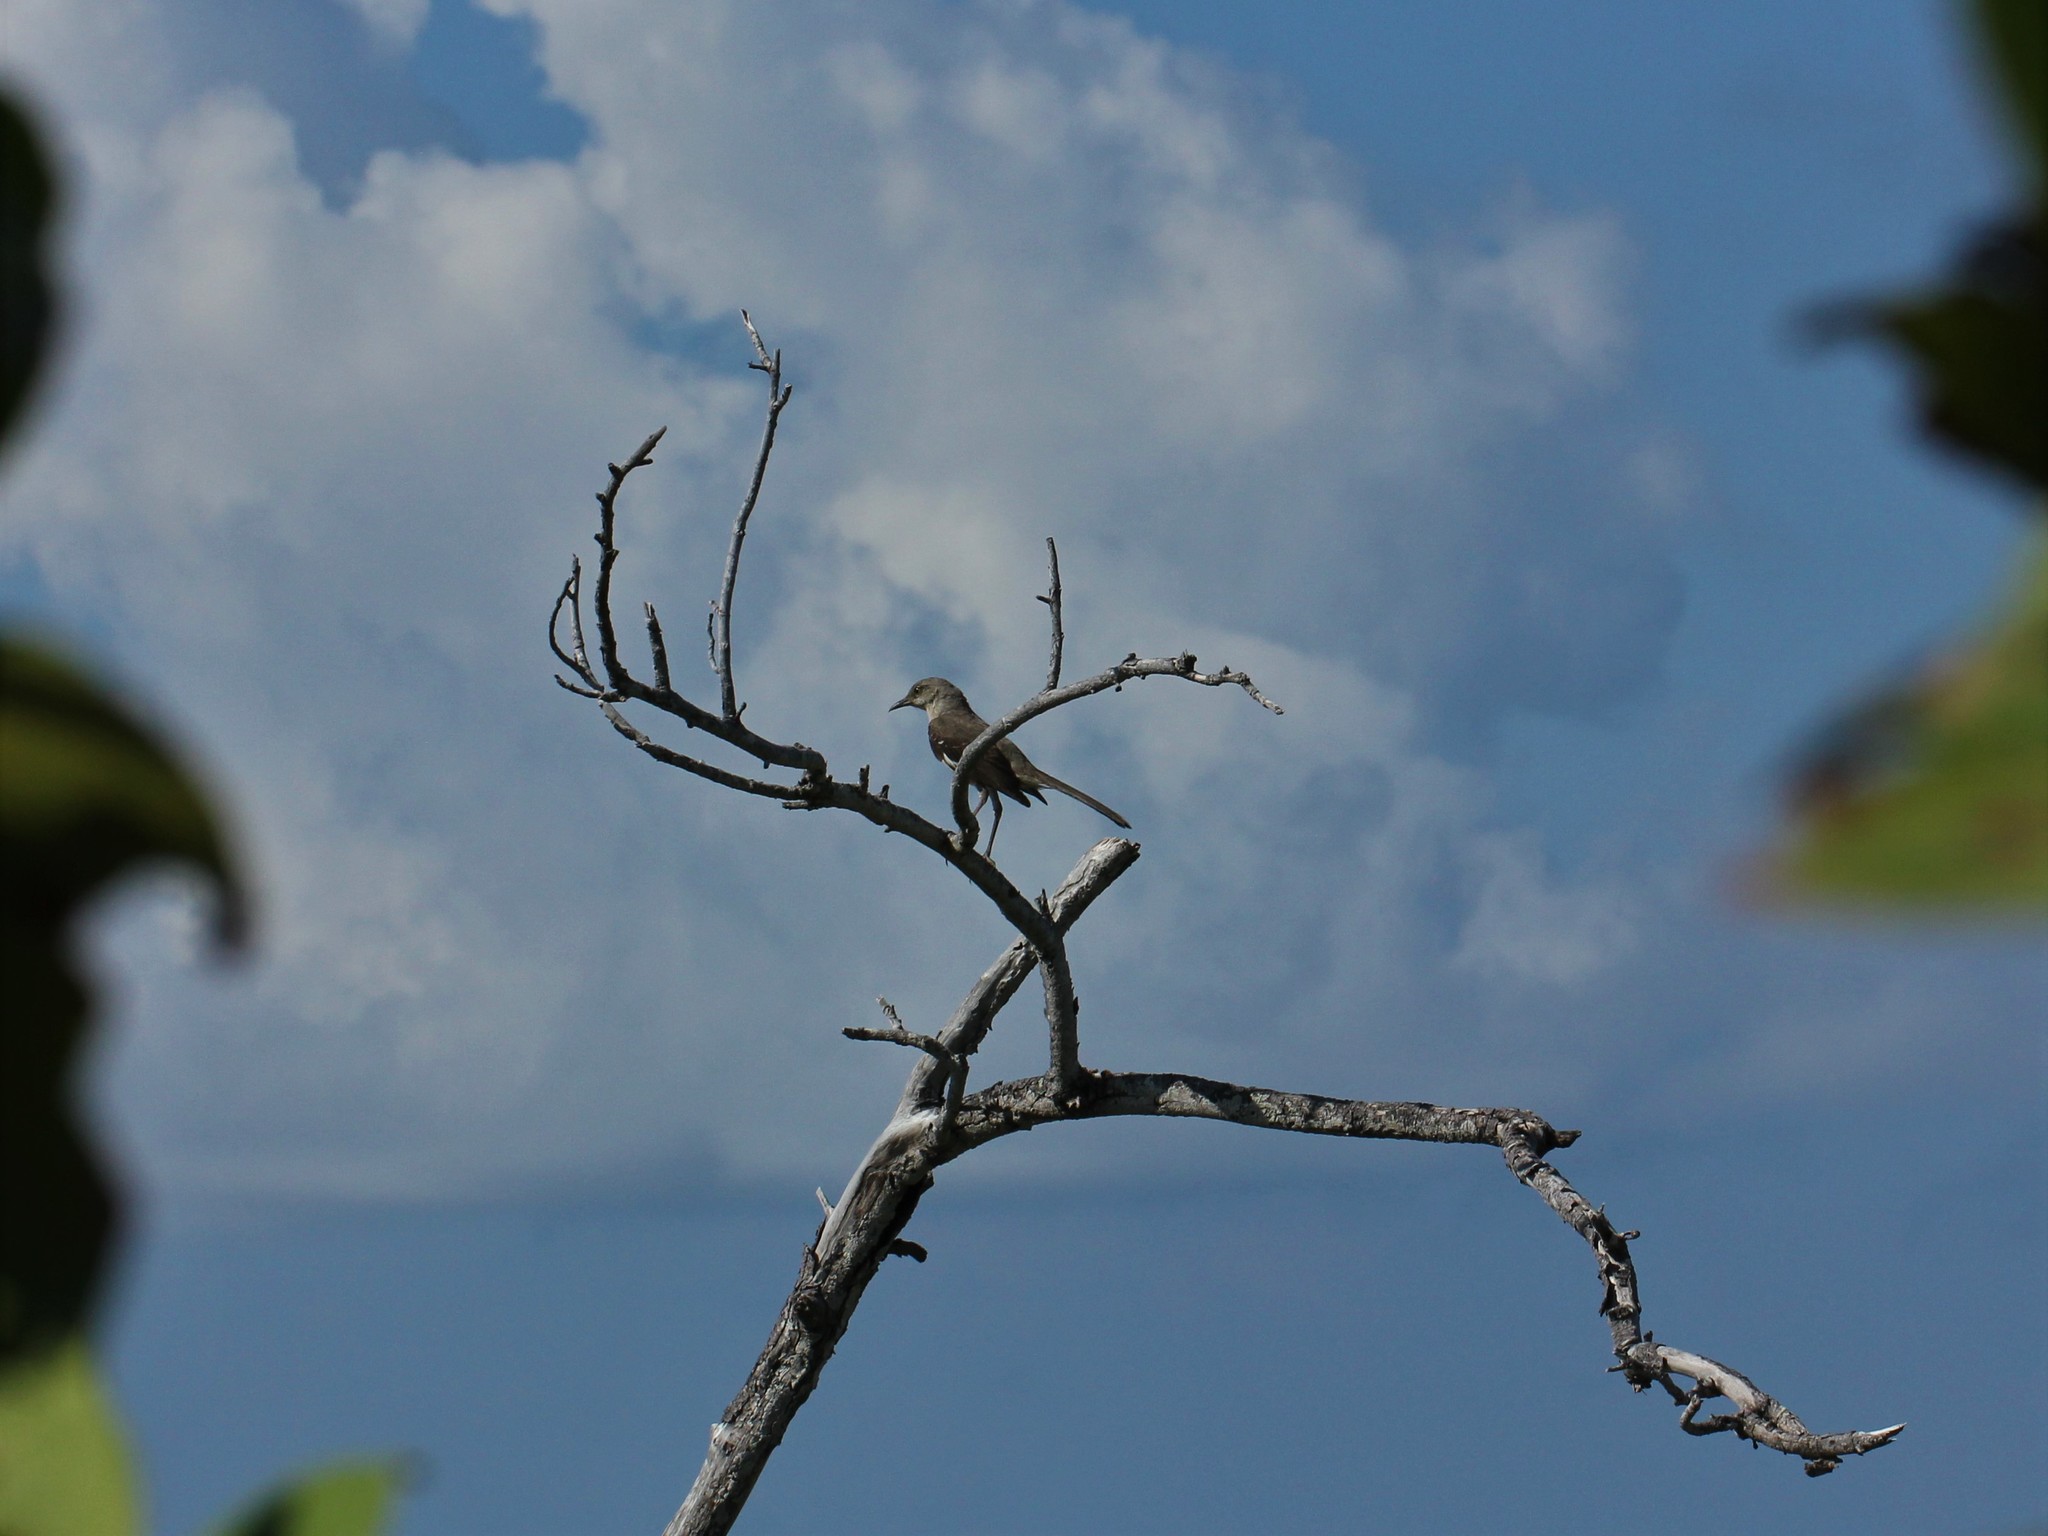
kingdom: Animalia
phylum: Chordata
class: Aves
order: Passeriformes
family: Mimidae
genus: Mimus
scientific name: Mimus polyglottos
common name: Northern mockingbird
